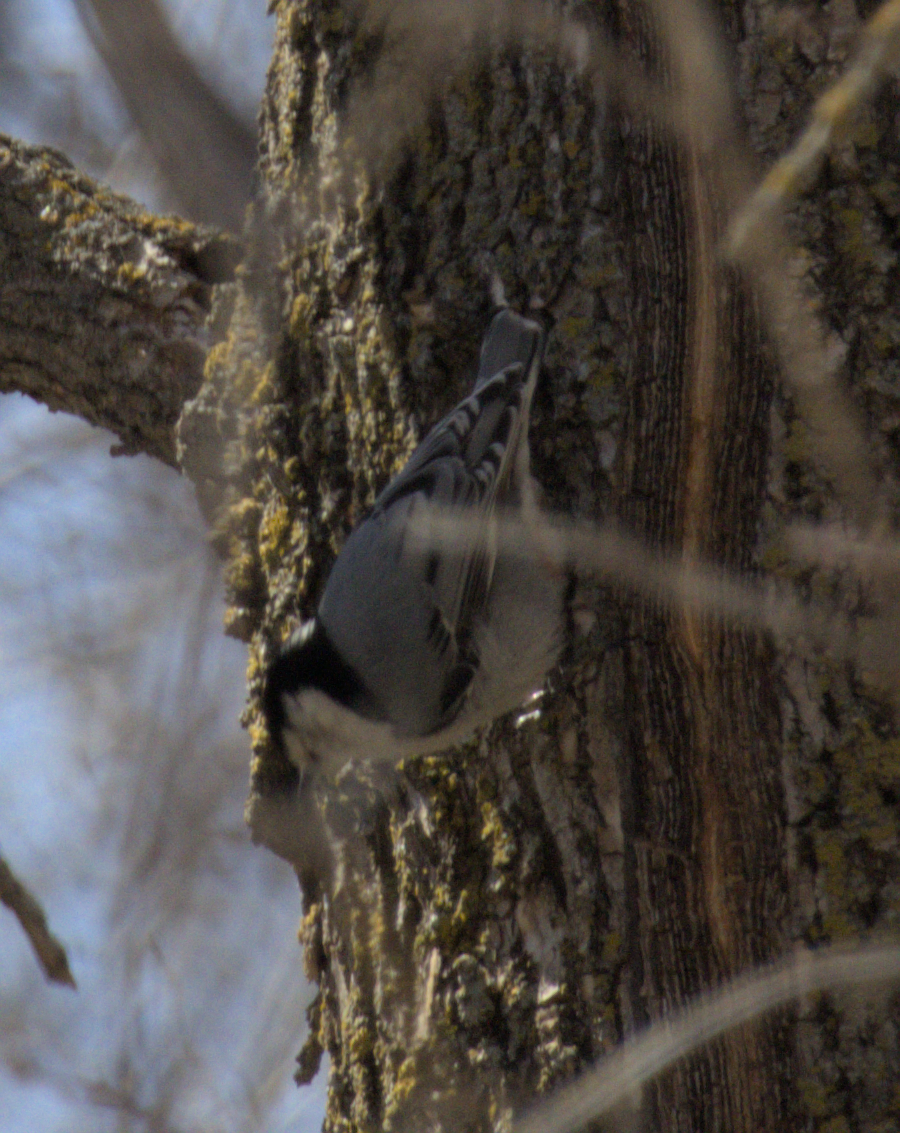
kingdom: Animalia
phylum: Chordata
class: Aves
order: Passeriformes
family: Sittidae
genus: Sitta
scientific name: Sitta carolinensis
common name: White-breasted nuthatch
